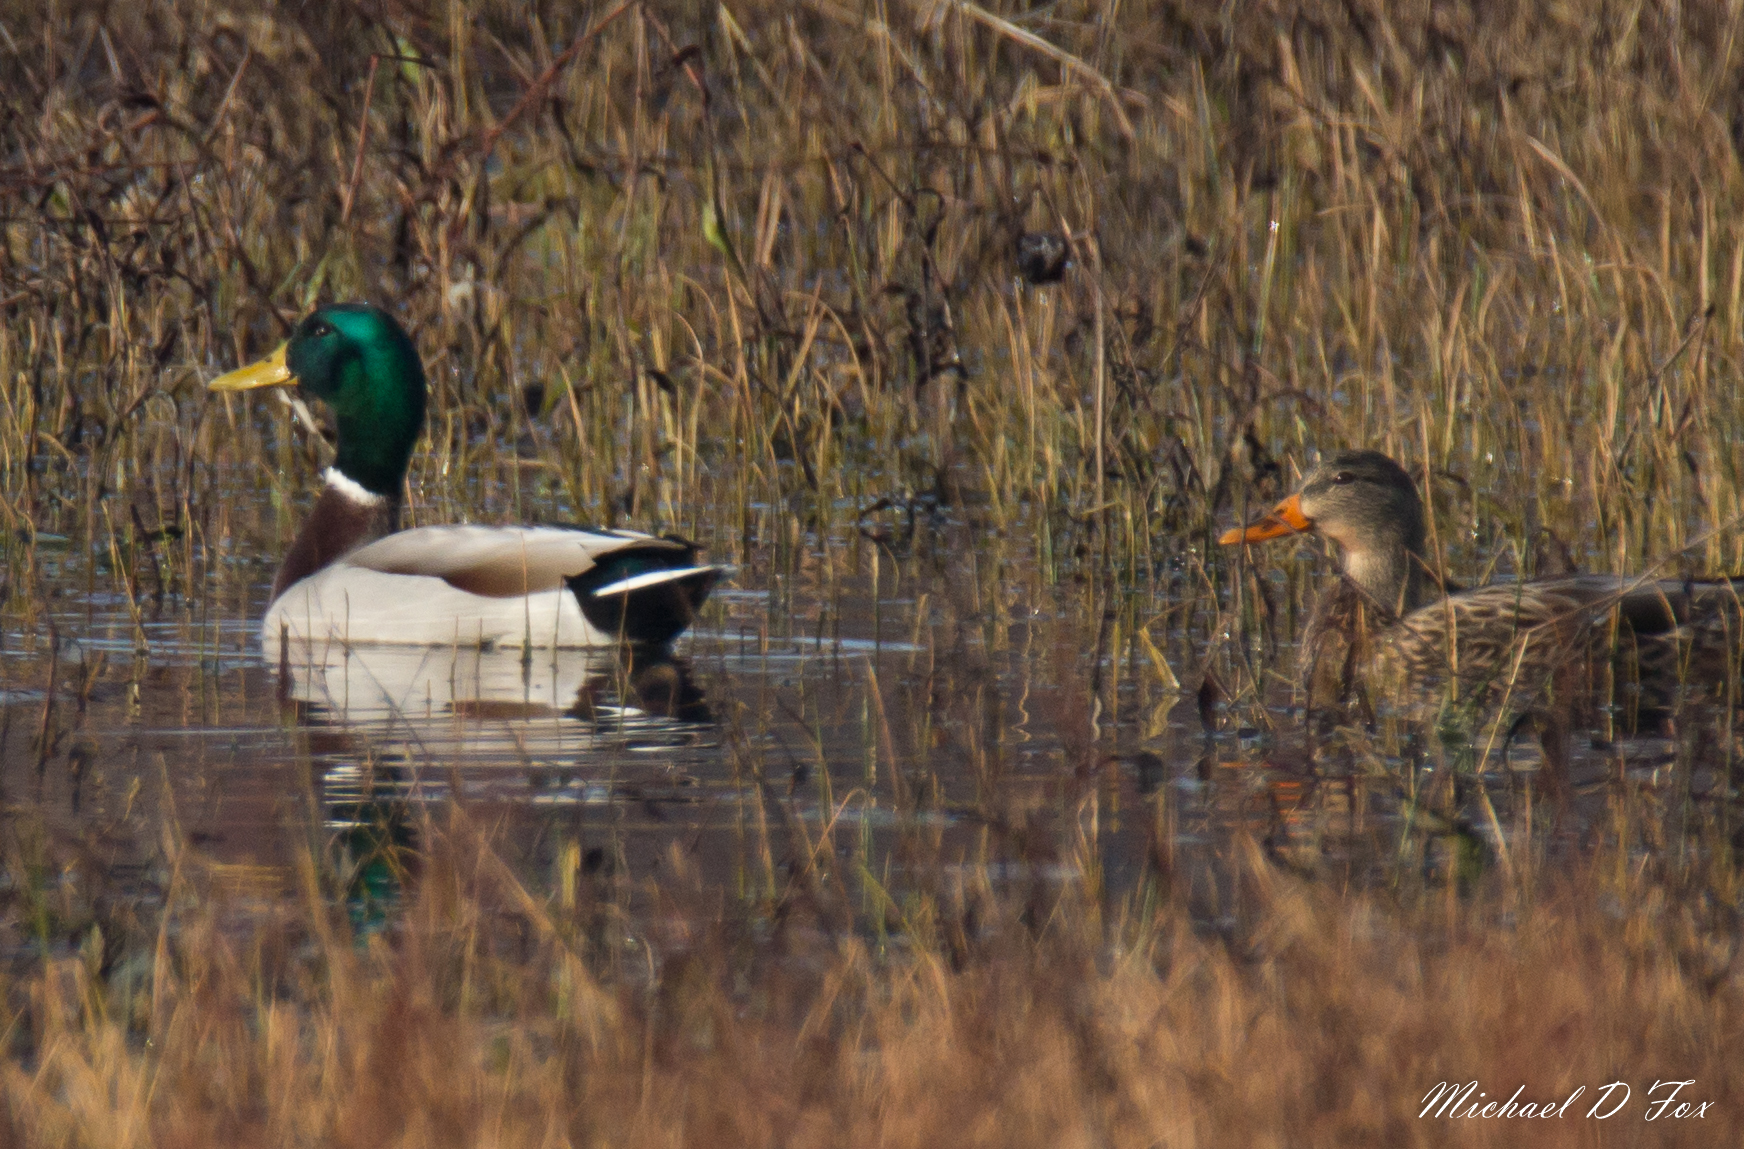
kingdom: Animalia
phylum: Chordata
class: Aves
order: Anseriformes
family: Anatidae
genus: Anas
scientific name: Anas platyrhynchos
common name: Mallard
